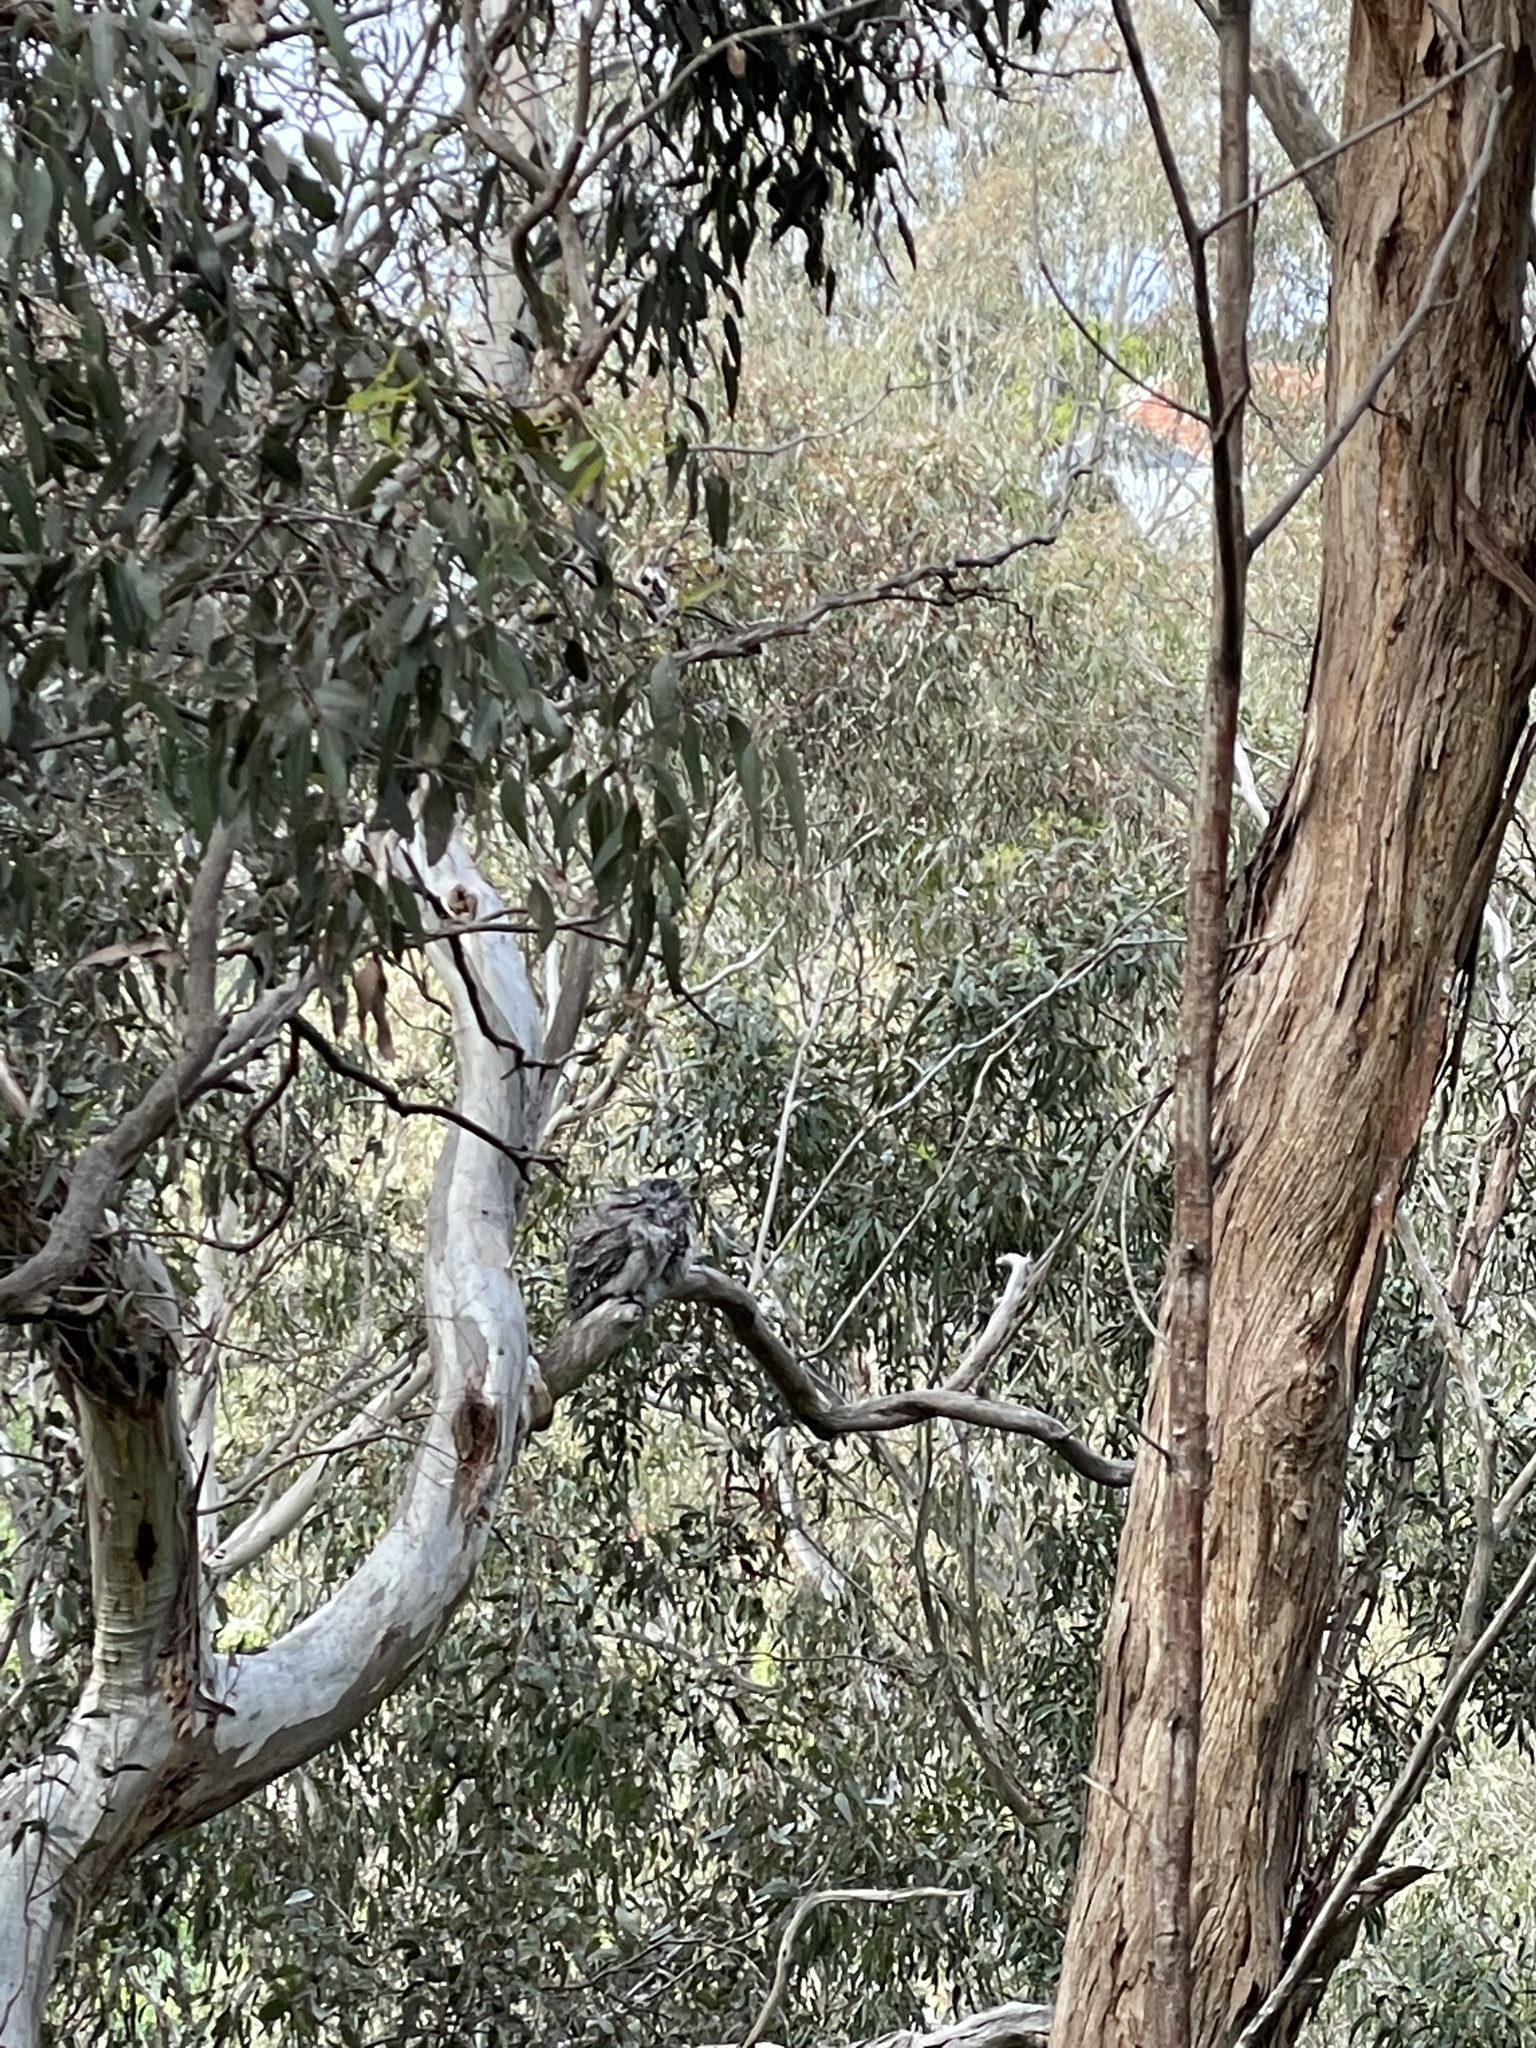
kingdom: Animalia
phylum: Chordata
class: Aves
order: Caprimulgiformes
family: Podargidae
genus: Podargus
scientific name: Podargus strigoides
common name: Tawny frogmouth
